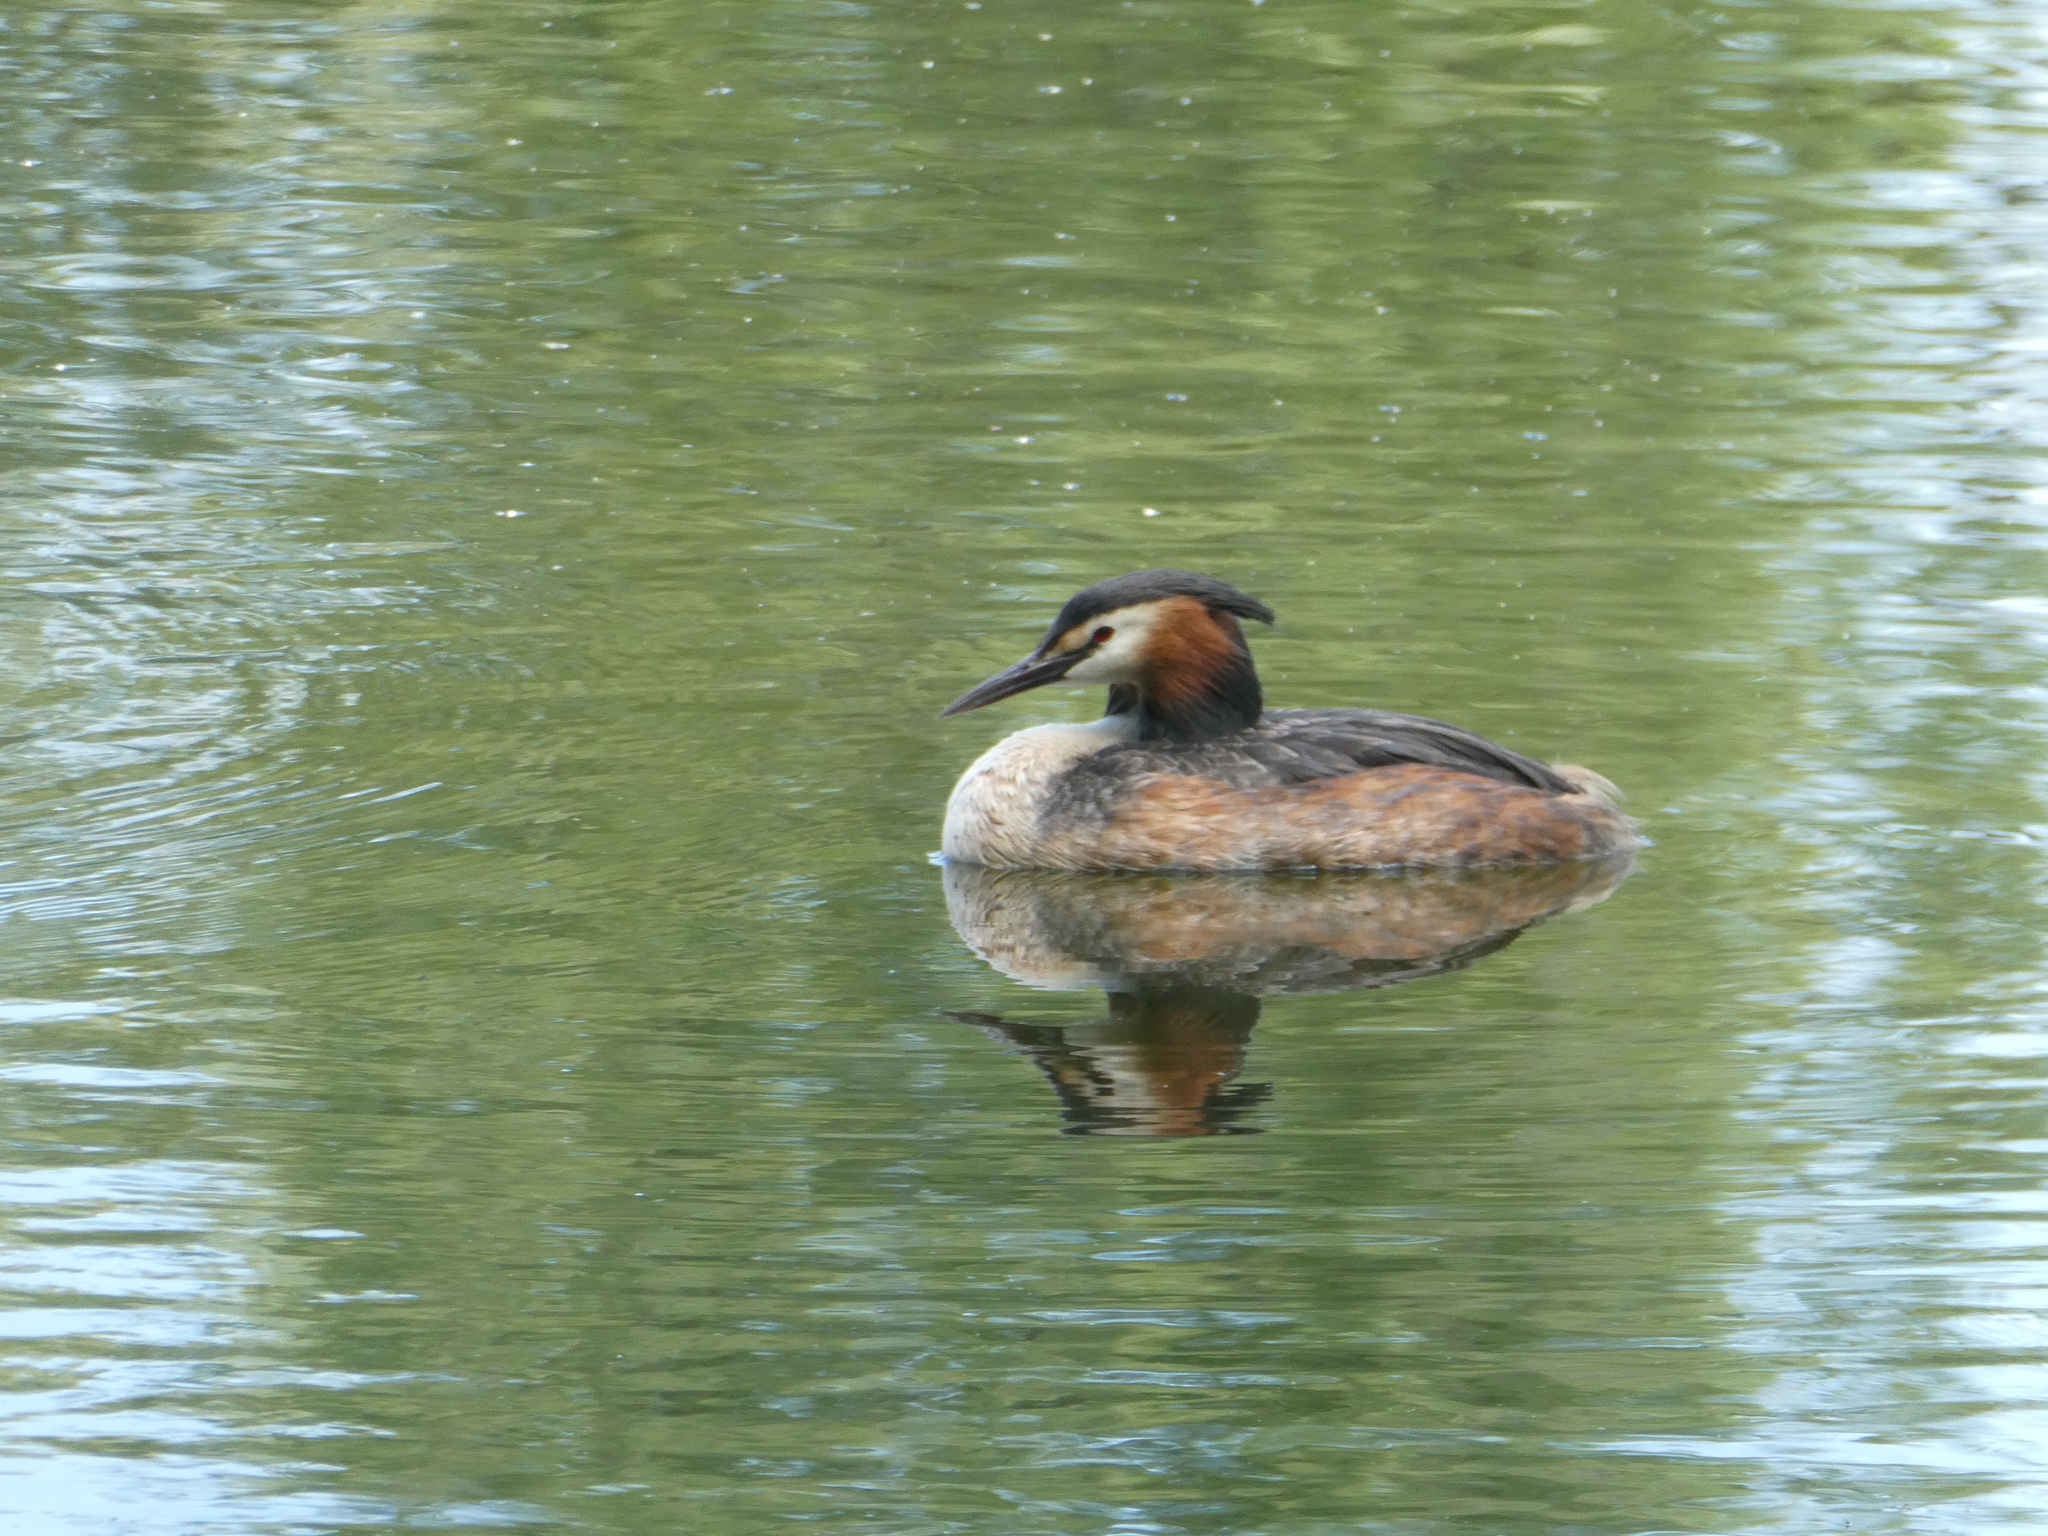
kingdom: Animalia
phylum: Chordata
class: Aves
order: Podicipediformes
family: Podicipedidae
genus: Podiceps
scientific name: Podiceps cristatus
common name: Great crested grebe
